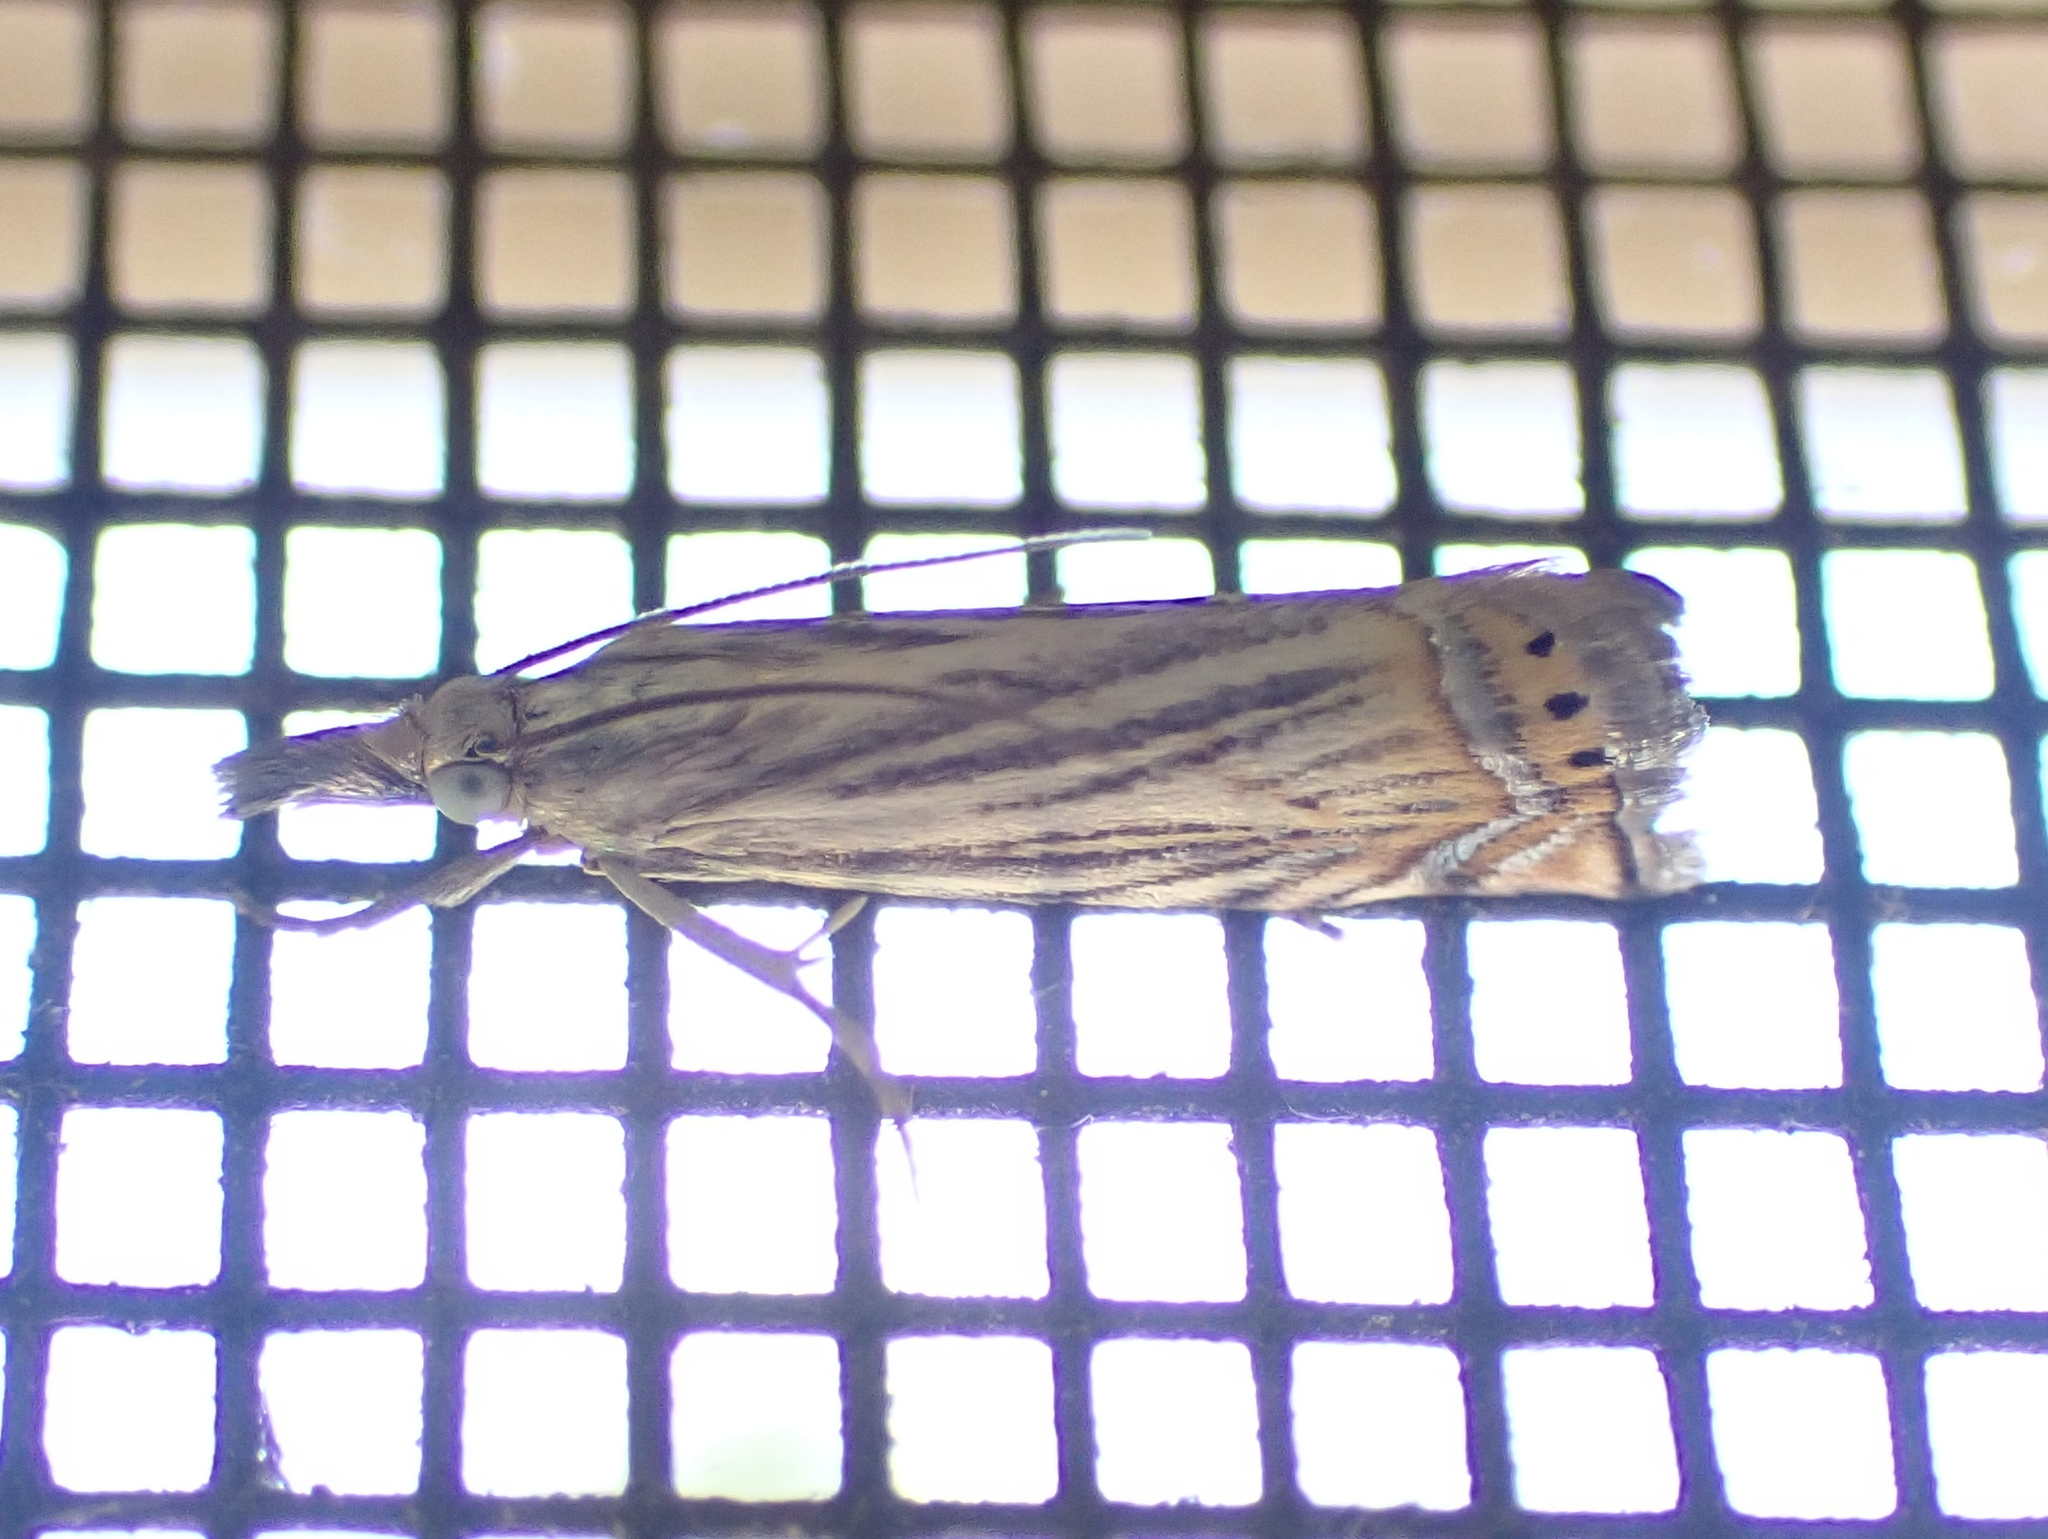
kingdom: Animalia
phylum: Arthropoda
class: Insecta
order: Lepidoptera
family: Crambidae
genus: Chrysoteuchia
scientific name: Chrysoteuchia topiarius
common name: Topiary grass-veneer
